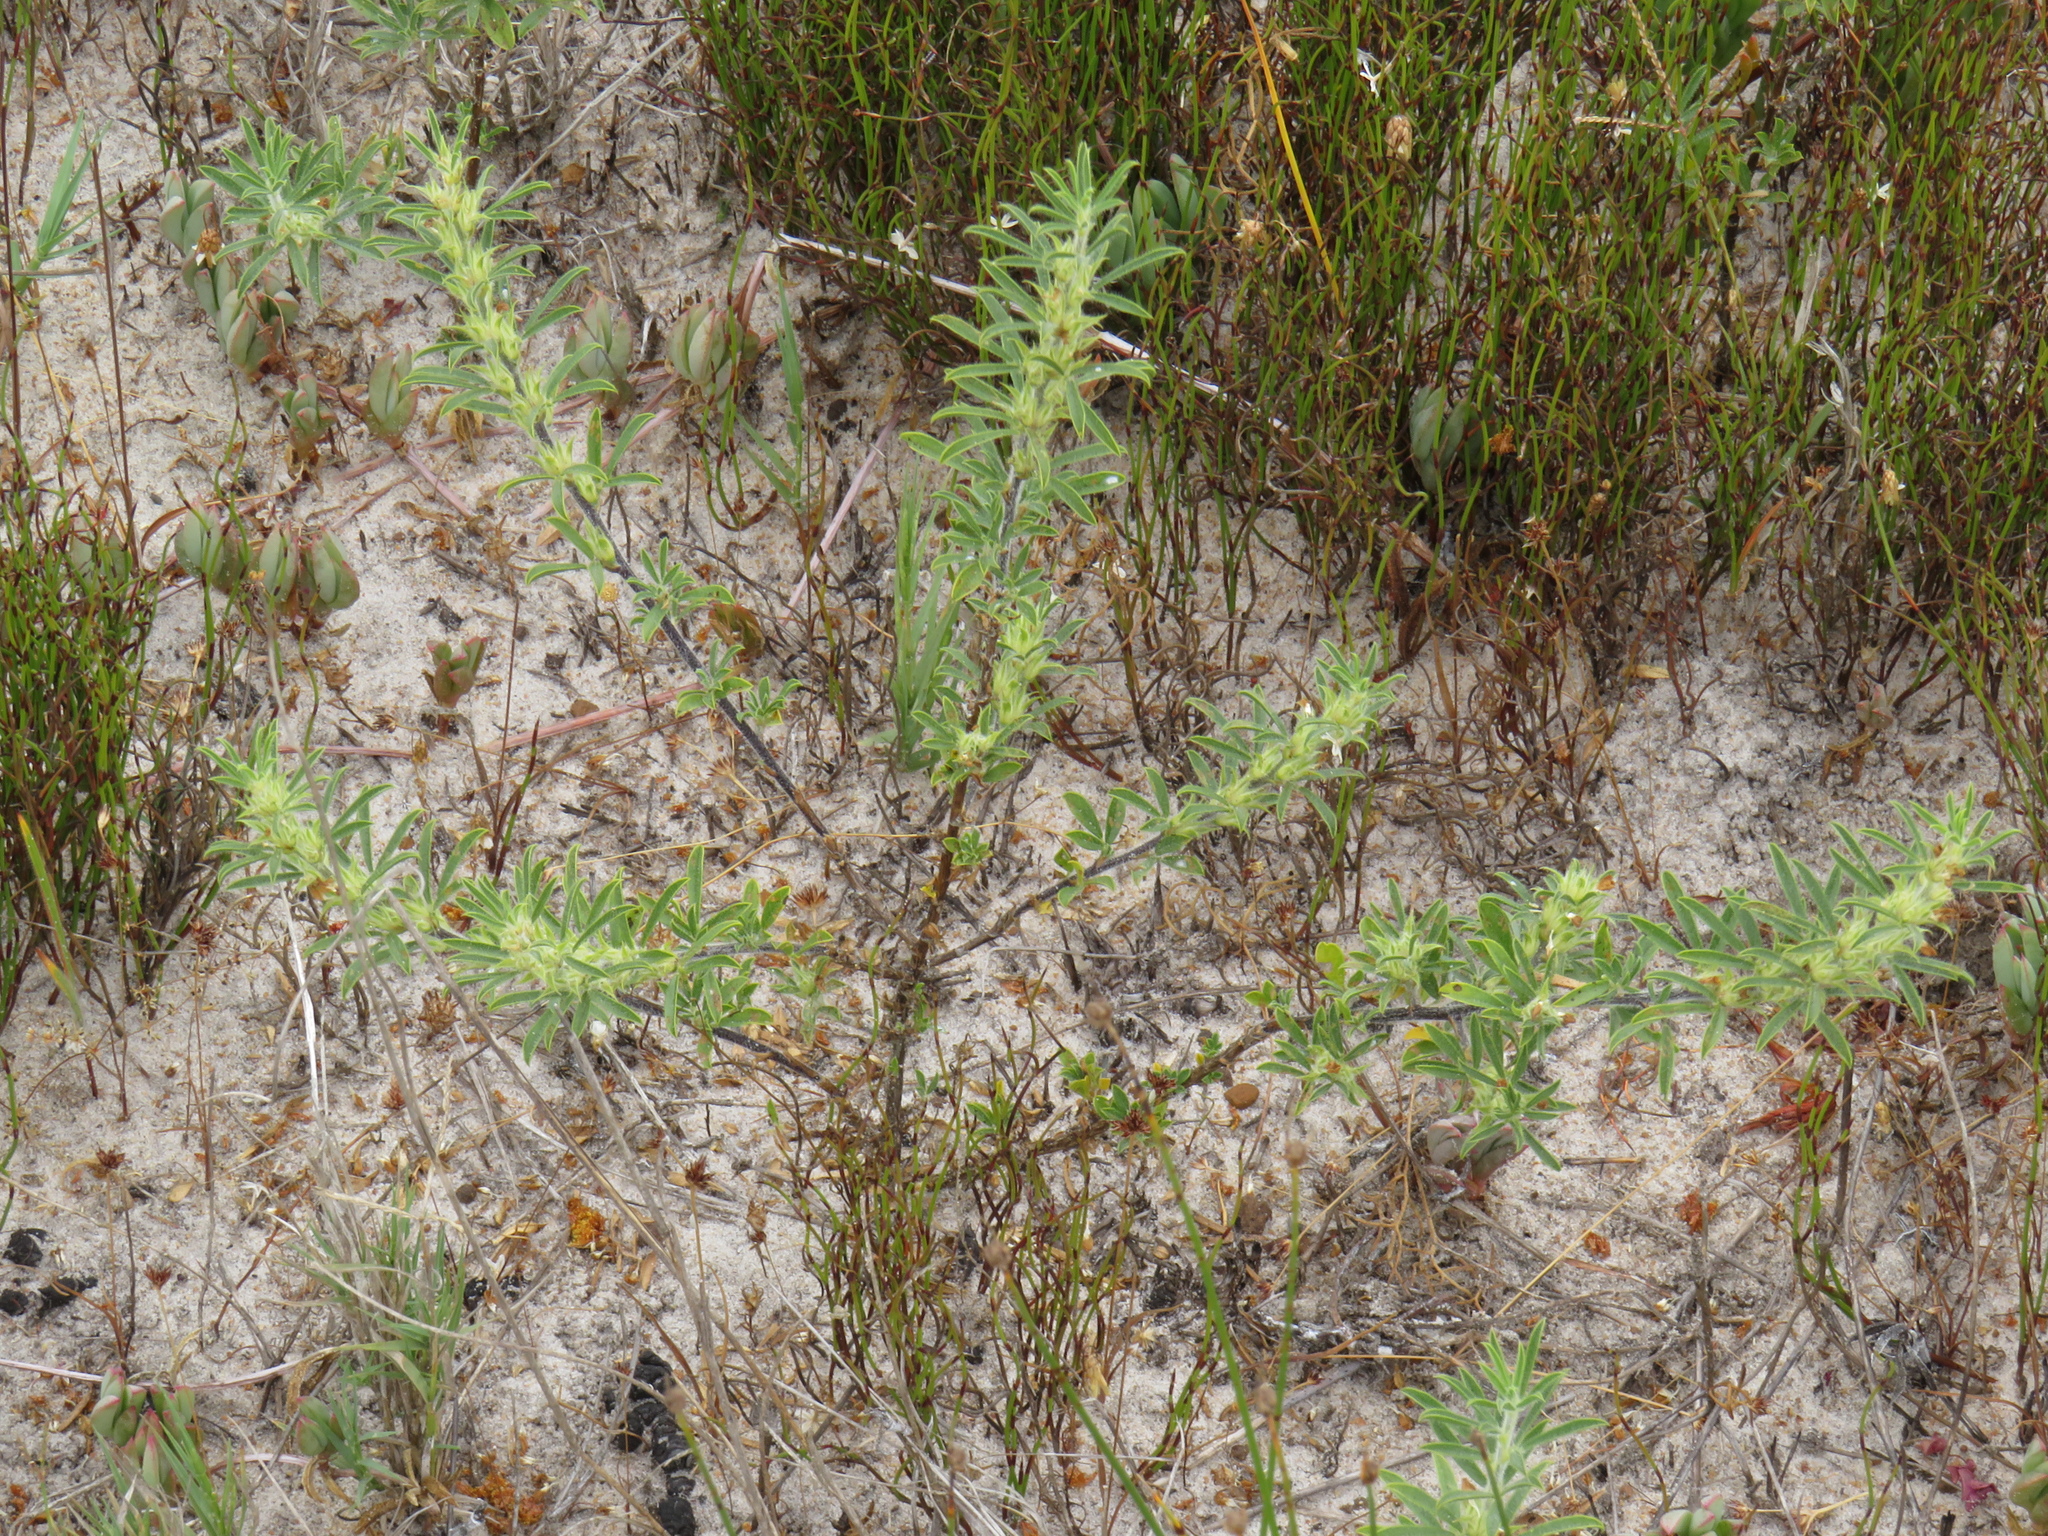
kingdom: Plantae
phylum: Tracheophyta
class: Magnoliopsida
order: Fabales
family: Fabaceae
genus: Psoralea
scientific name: Psoralea bolusii
